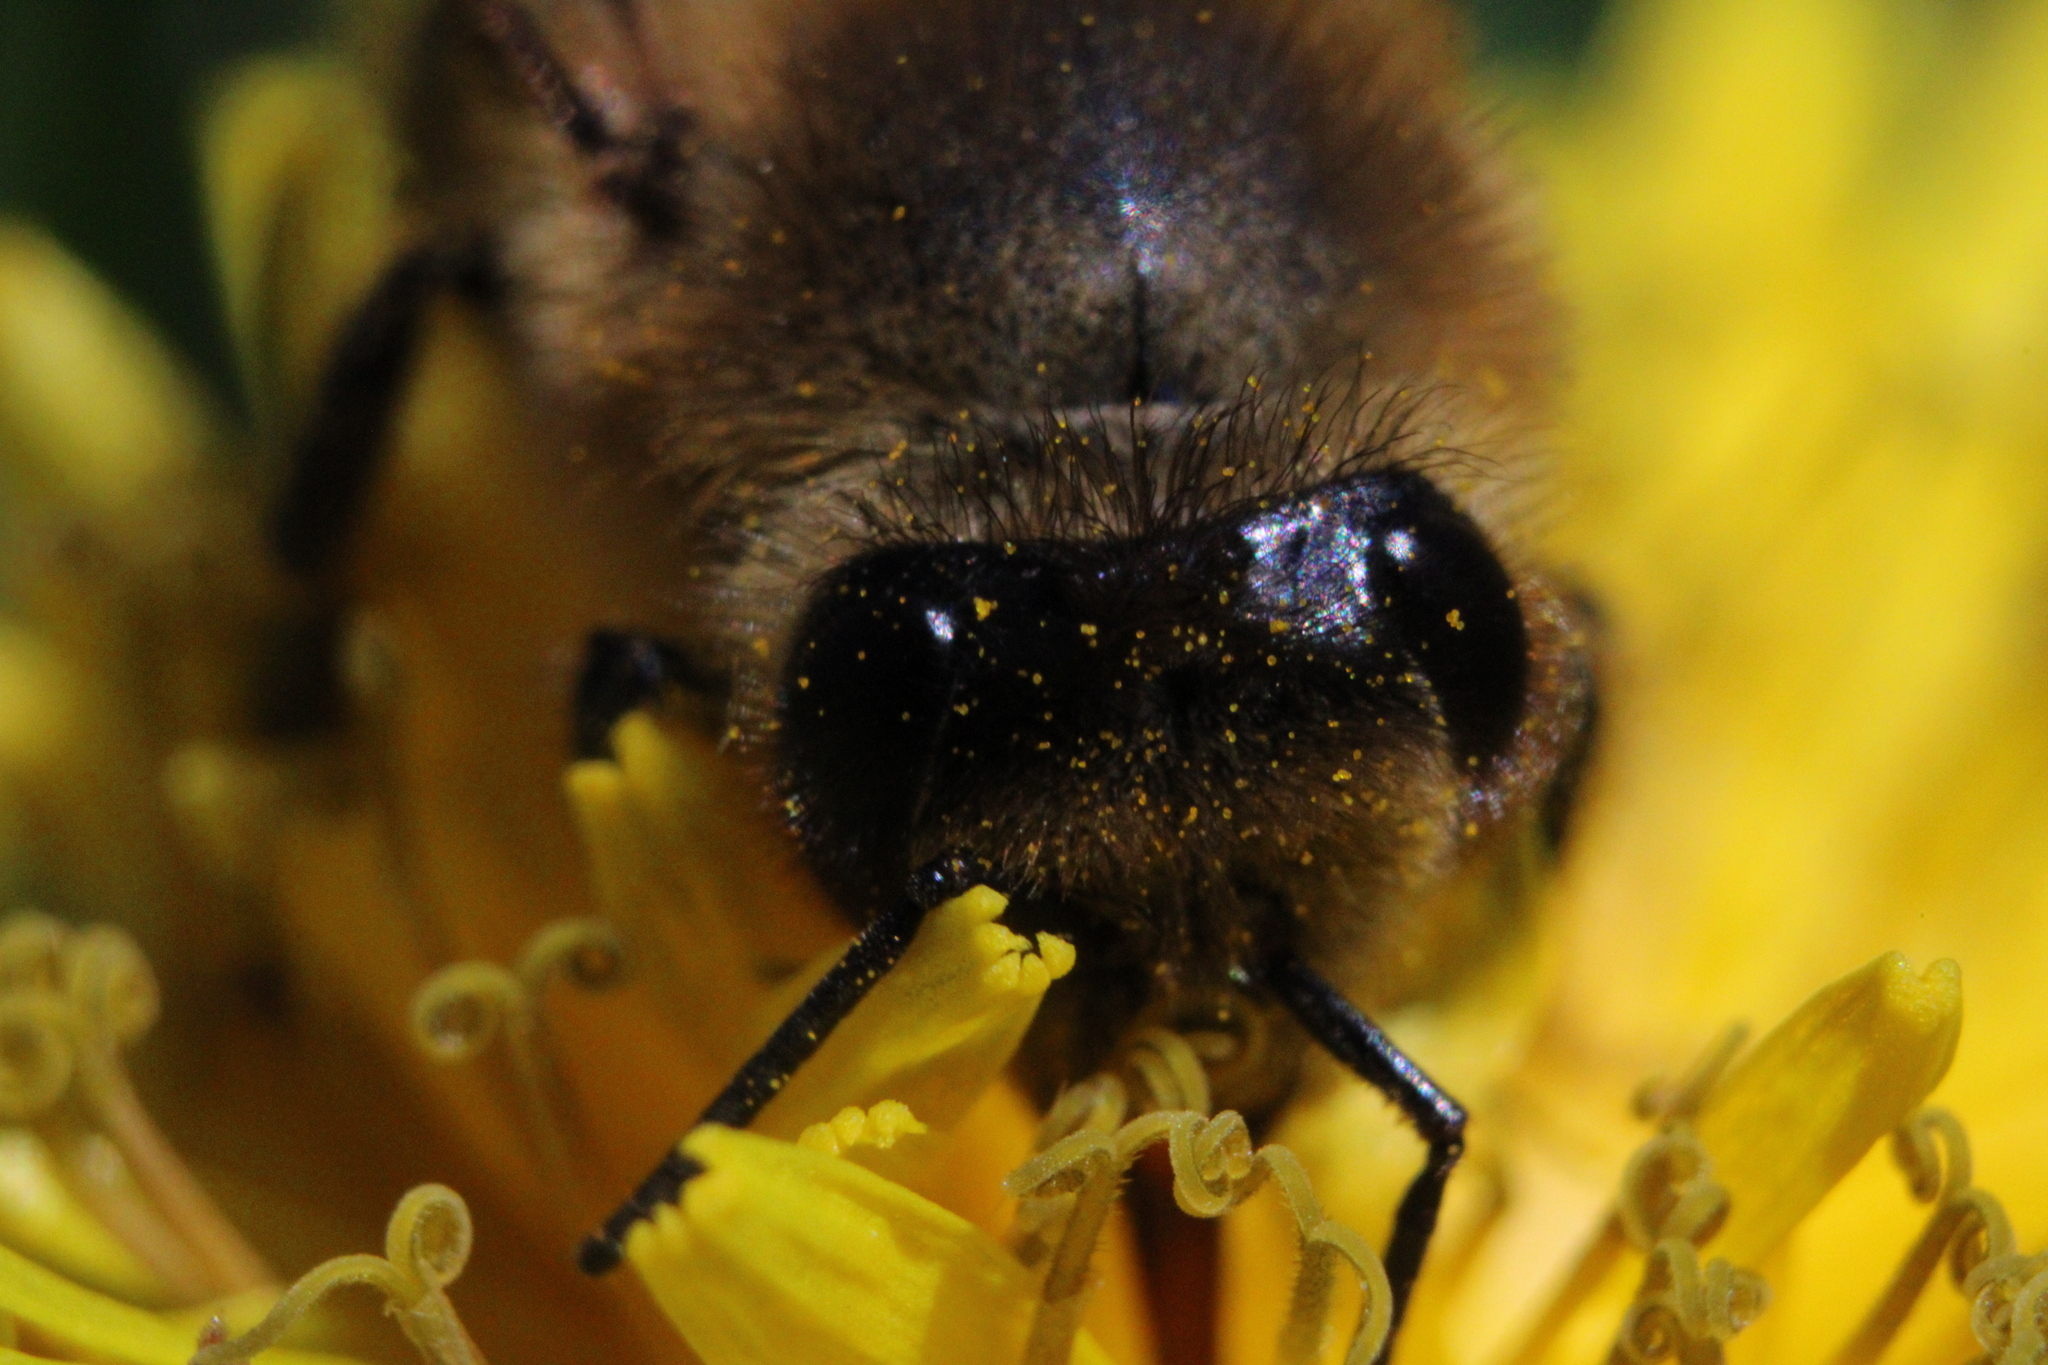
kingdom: Animalia
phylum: Arthropoda
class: Insecta
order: Hymenoptera
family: Apidae
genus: Apis
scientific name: Apis mellifera
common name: Honey bee
